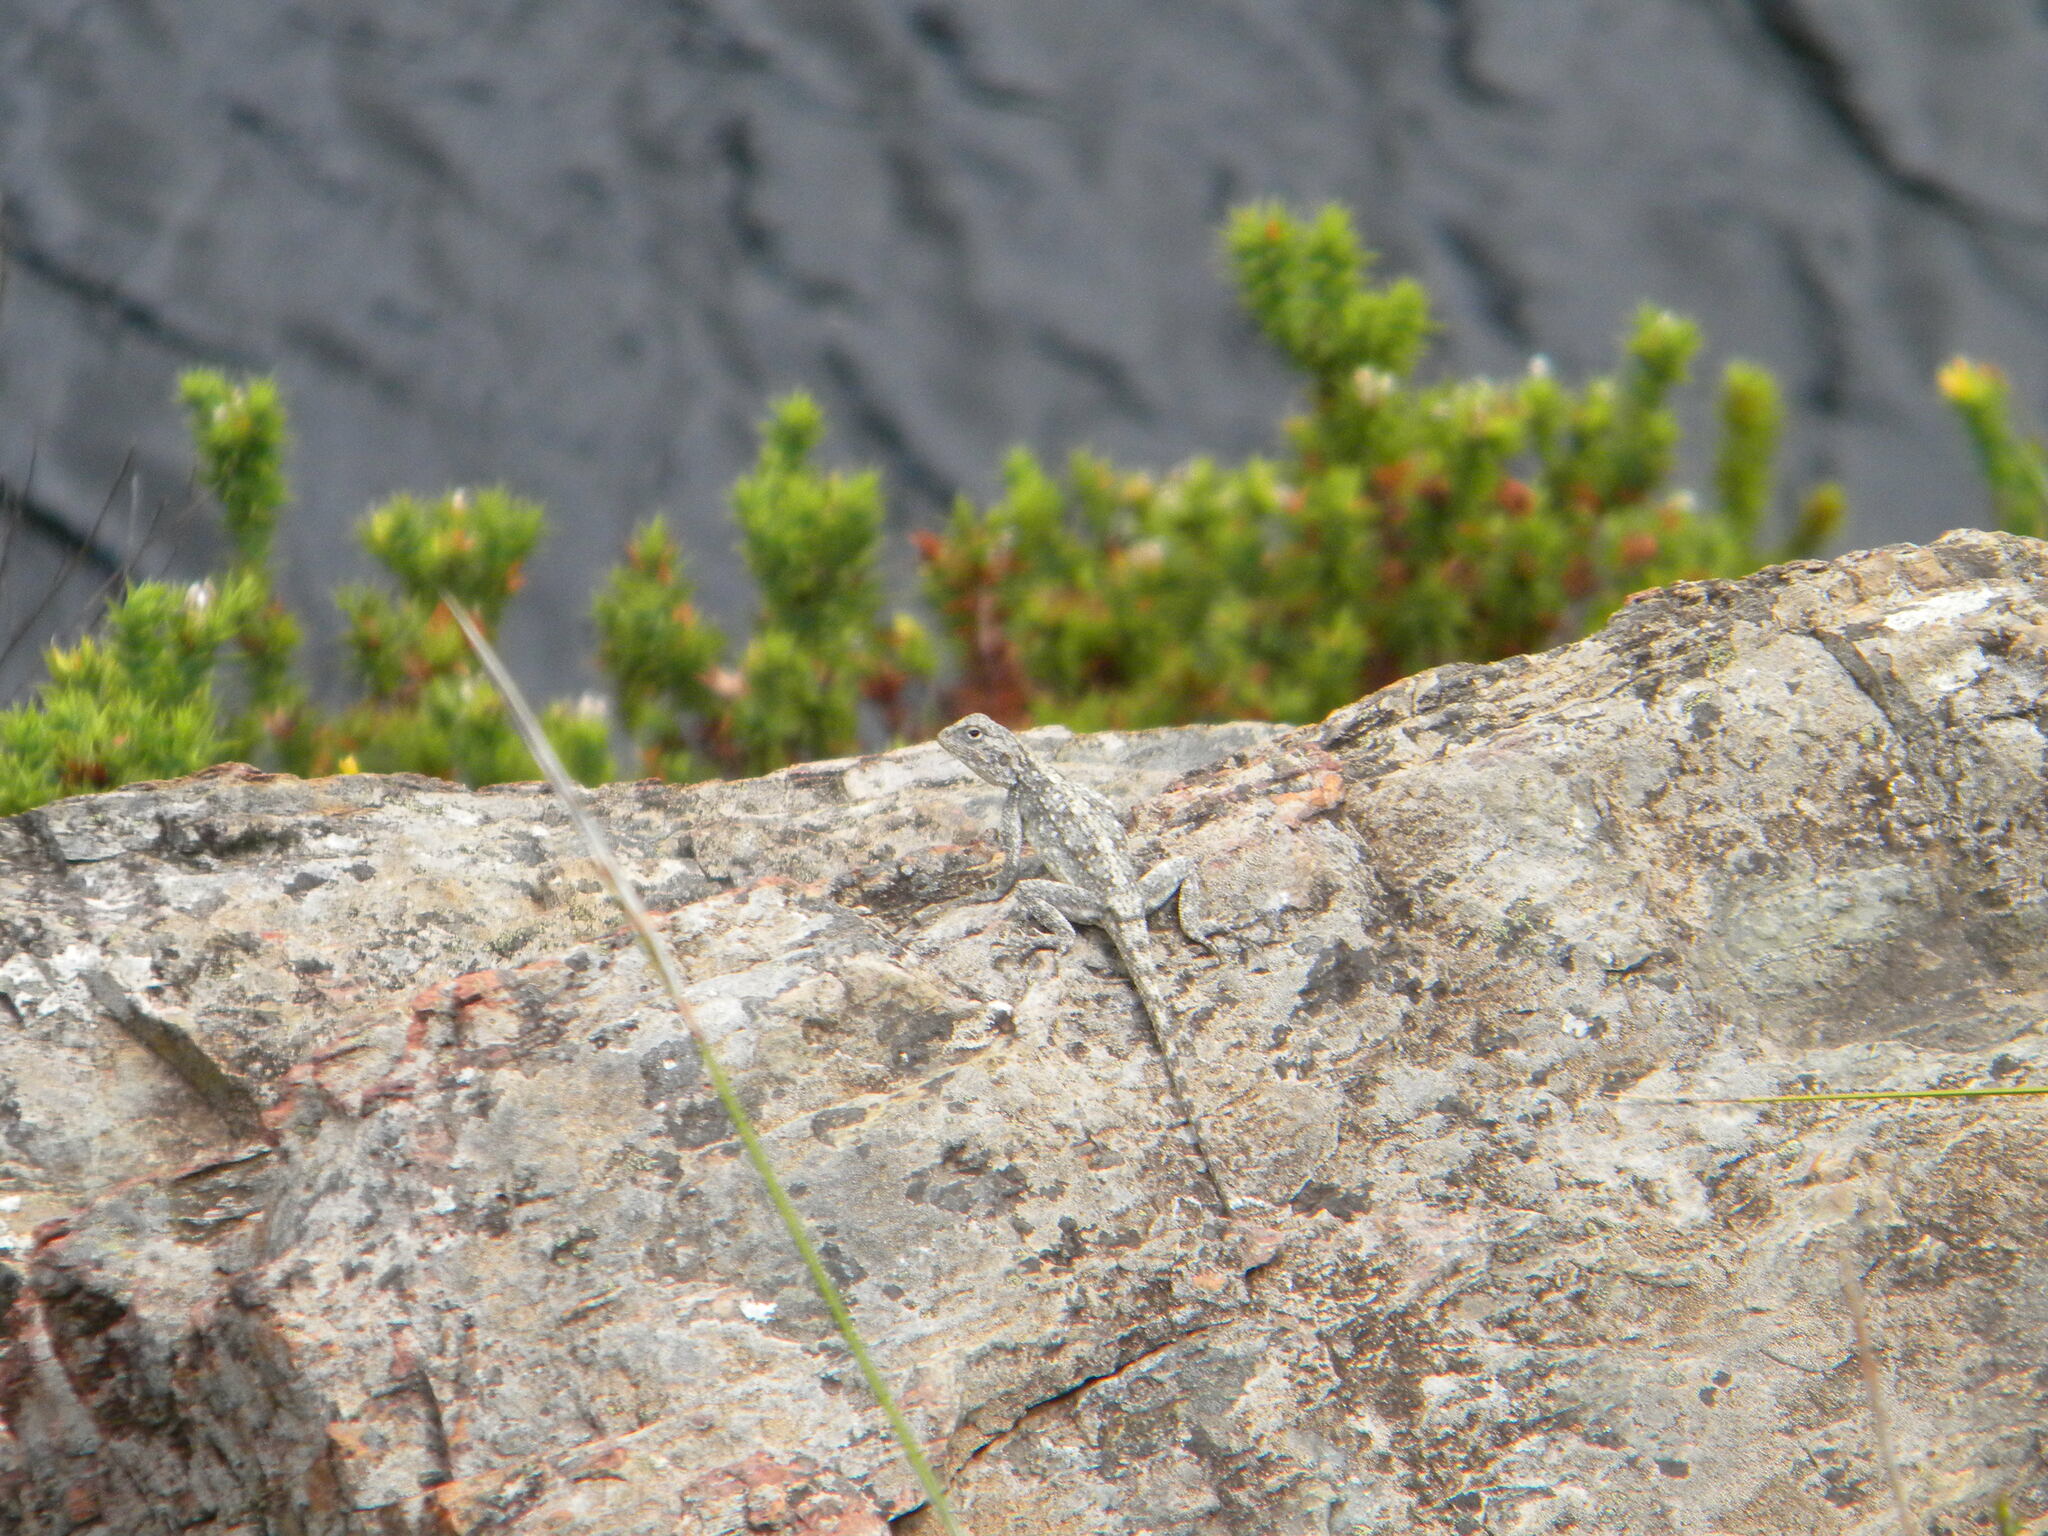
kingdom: Animalia
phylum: Chordata
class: Squamata
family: Agamidae
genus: Agama
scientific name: Agama atra
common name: Southern african rock agama
